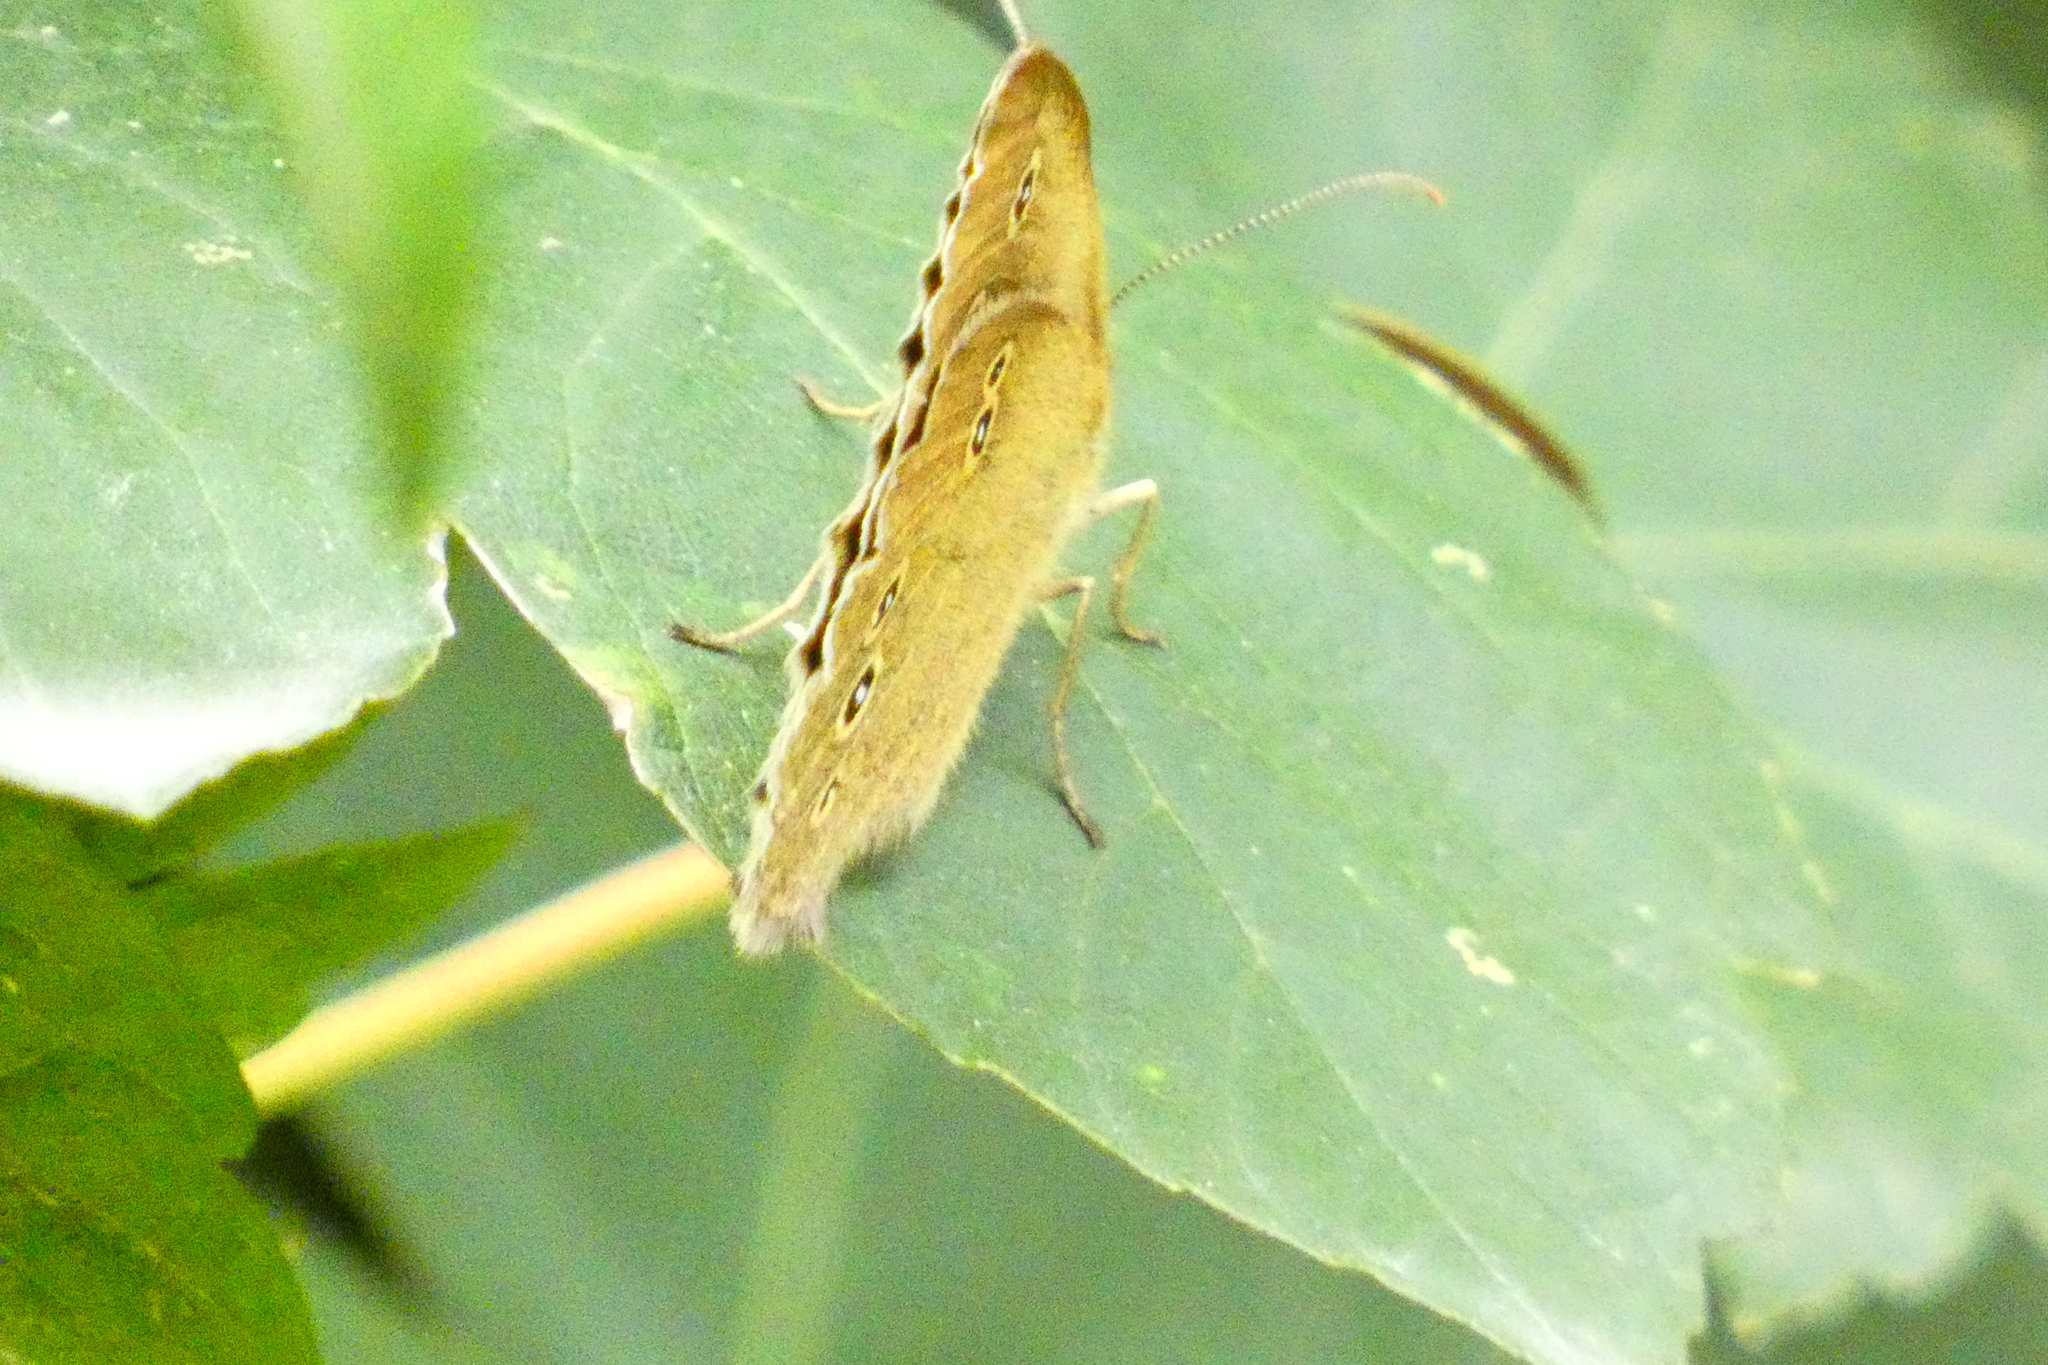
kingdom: Animalia
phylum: Arthropoda
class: Insecta
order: Lepidoptera
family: Nymphalidae
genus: Aphantopus
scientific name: Aphantopus hyperantus
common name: Ringlet
